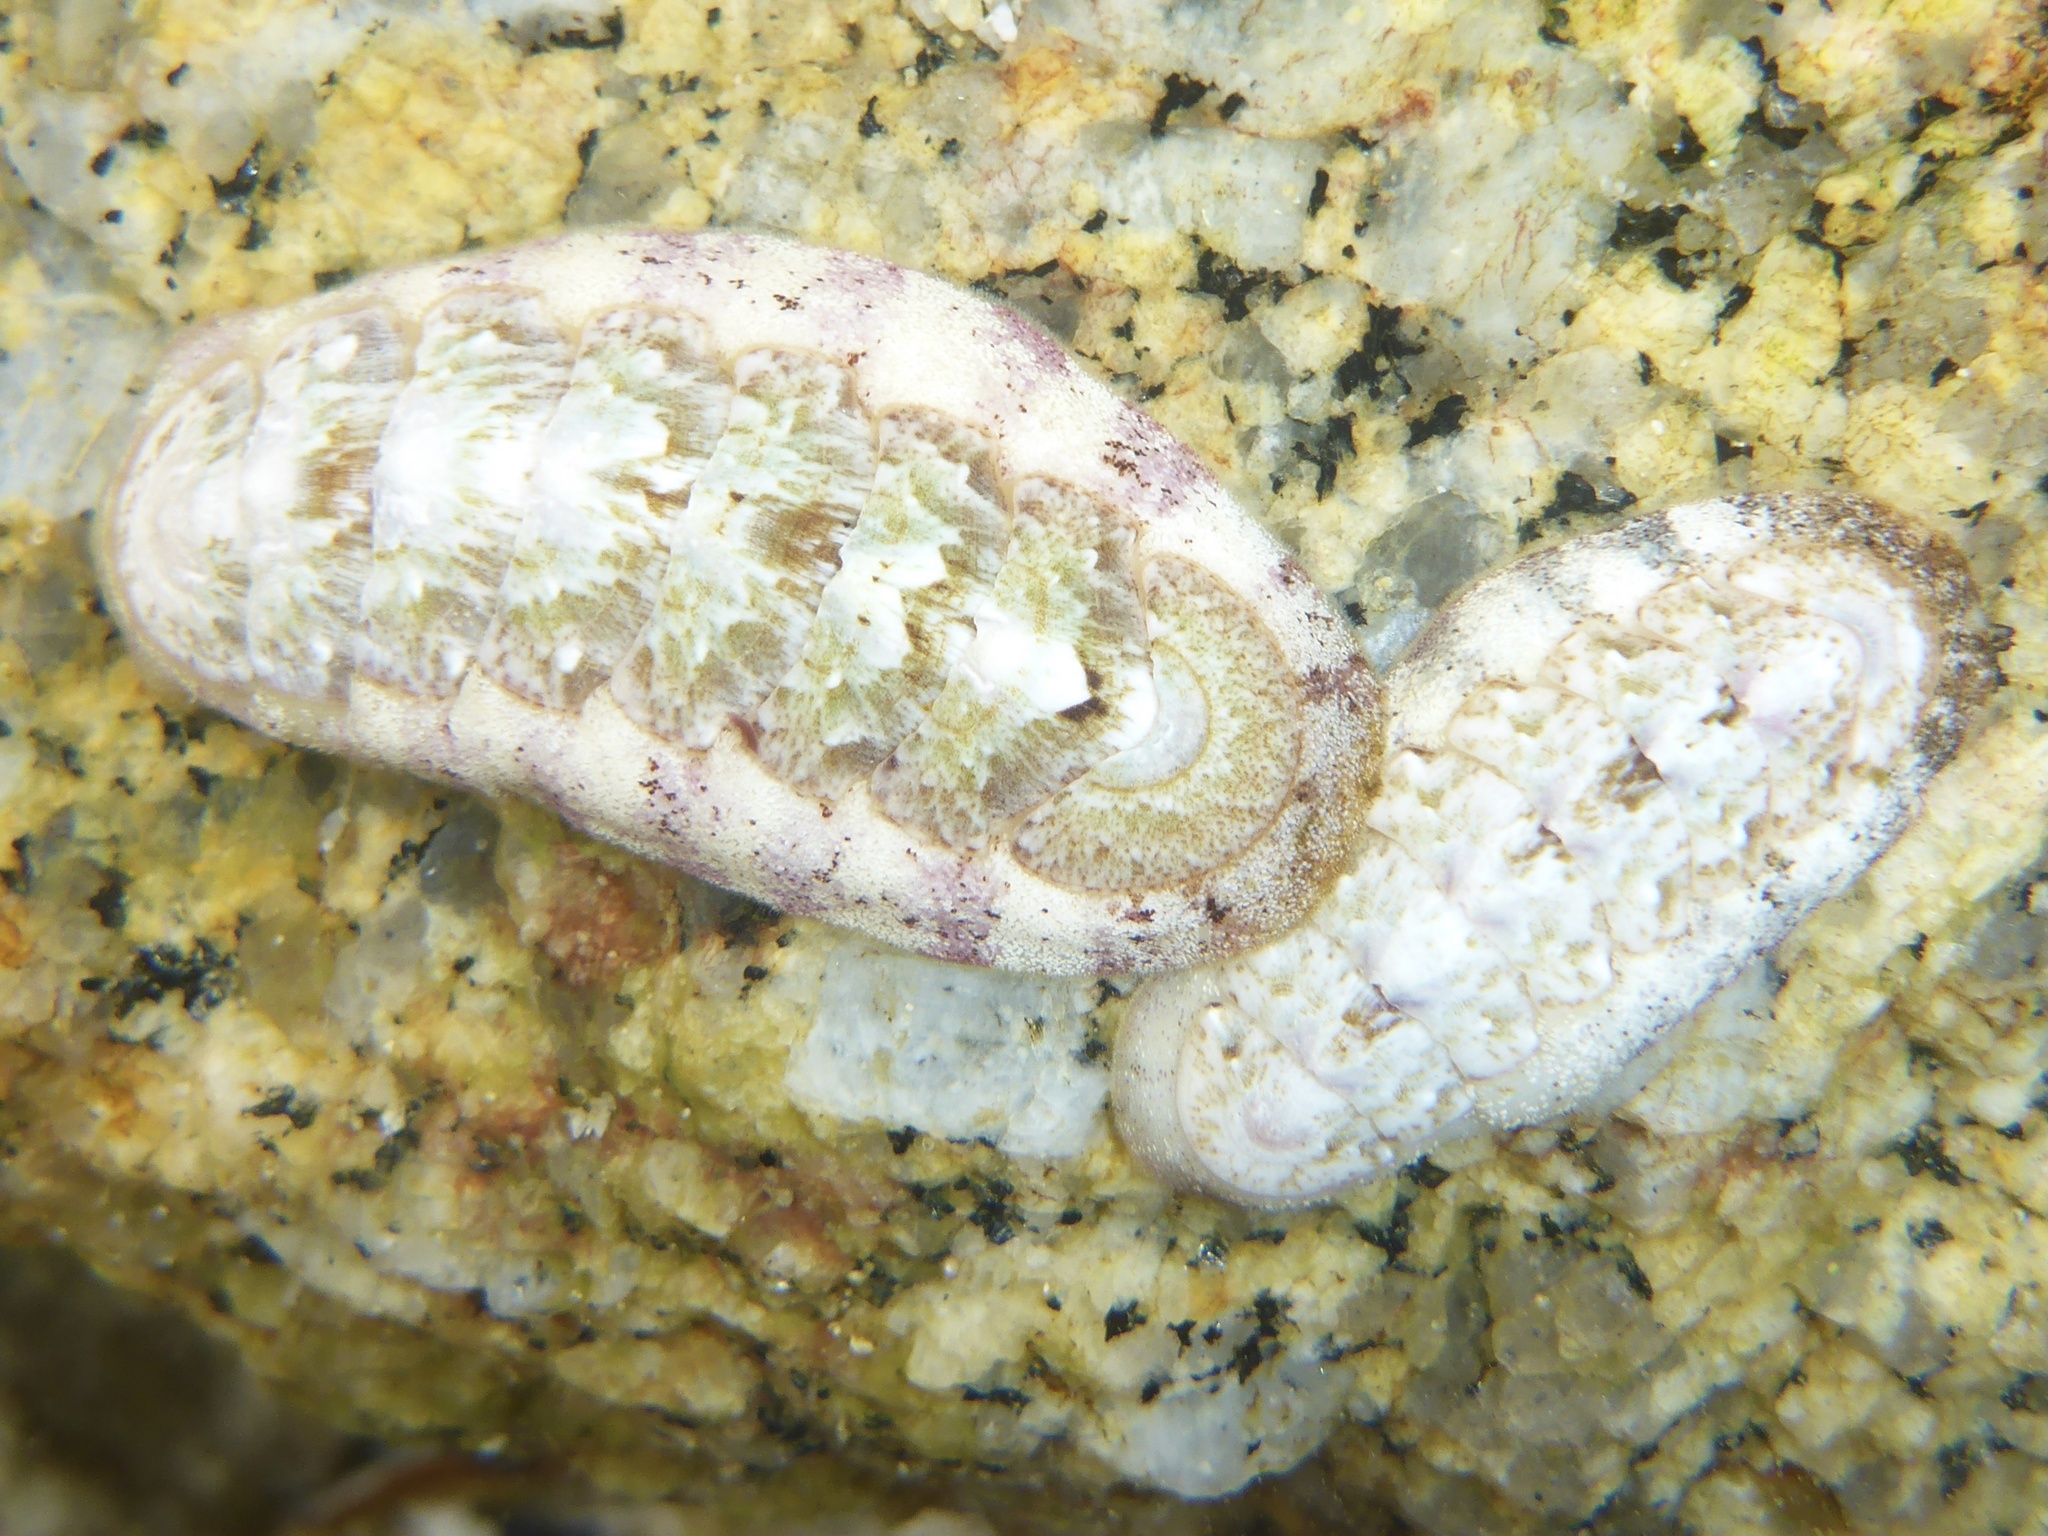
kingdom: Animalia
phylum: Mollusca
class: Polyplacophora
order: Chitonida
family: Ischnochitonidae
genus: Stenoplax
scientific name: Stenoplax heathiana
